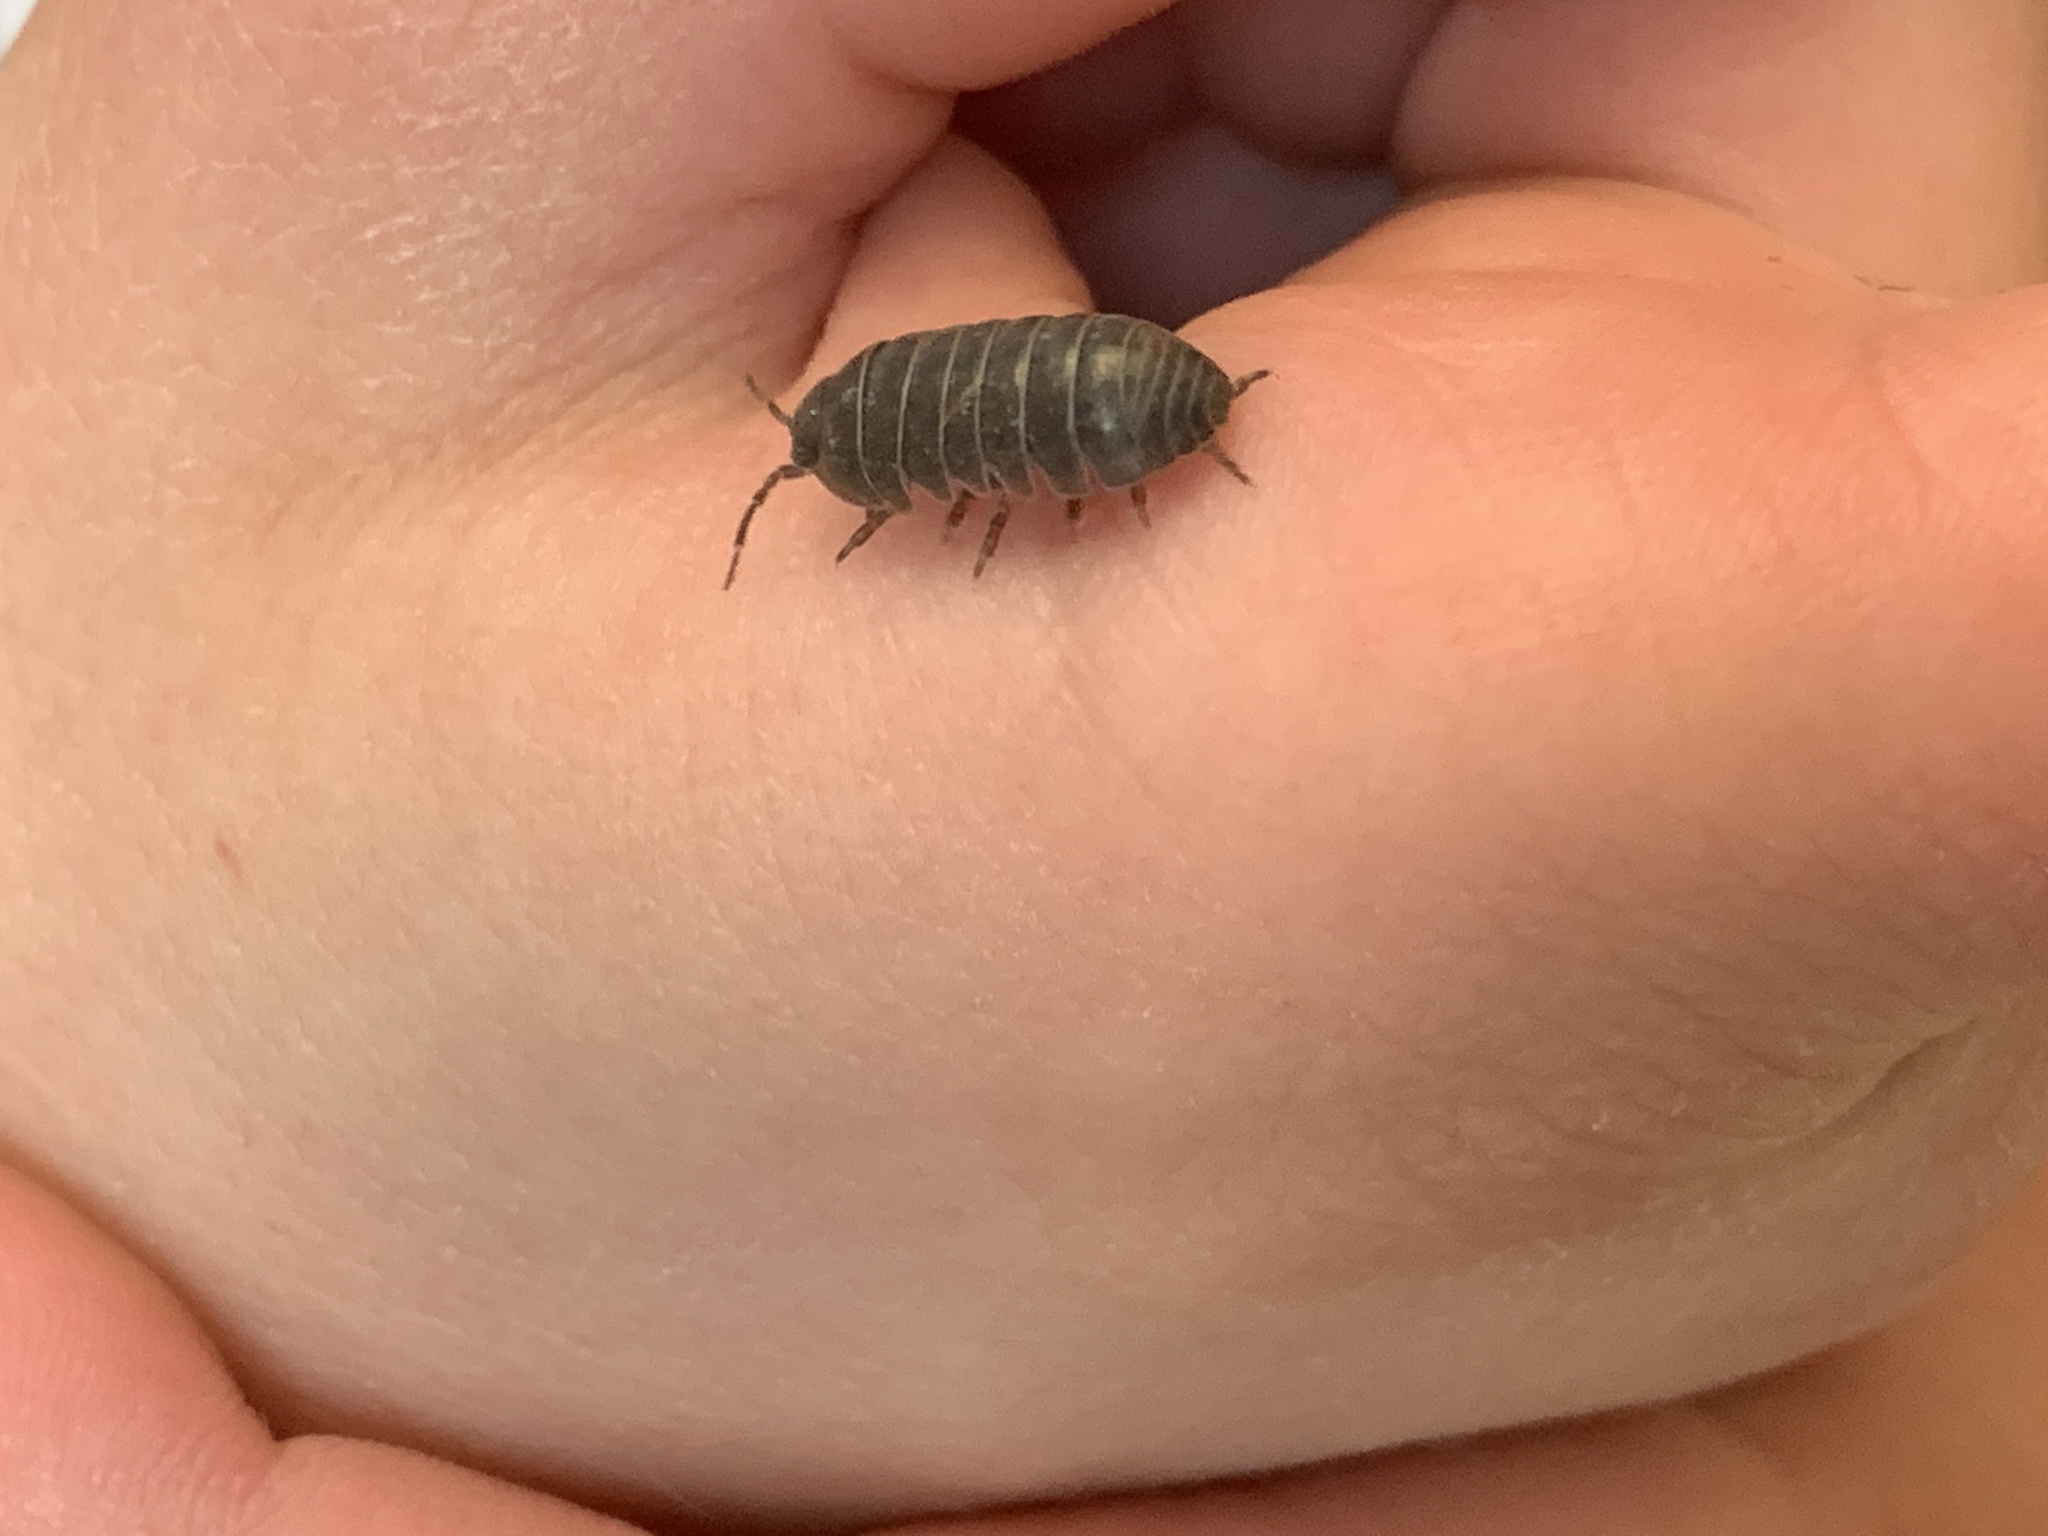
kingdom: Animalia
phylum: Arthropoda
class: Malacostraca
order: Isopoda
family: Armadillidiidae
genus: Armadillidium
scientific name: Armadillidium vulgare
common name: Common pill woodlouse
